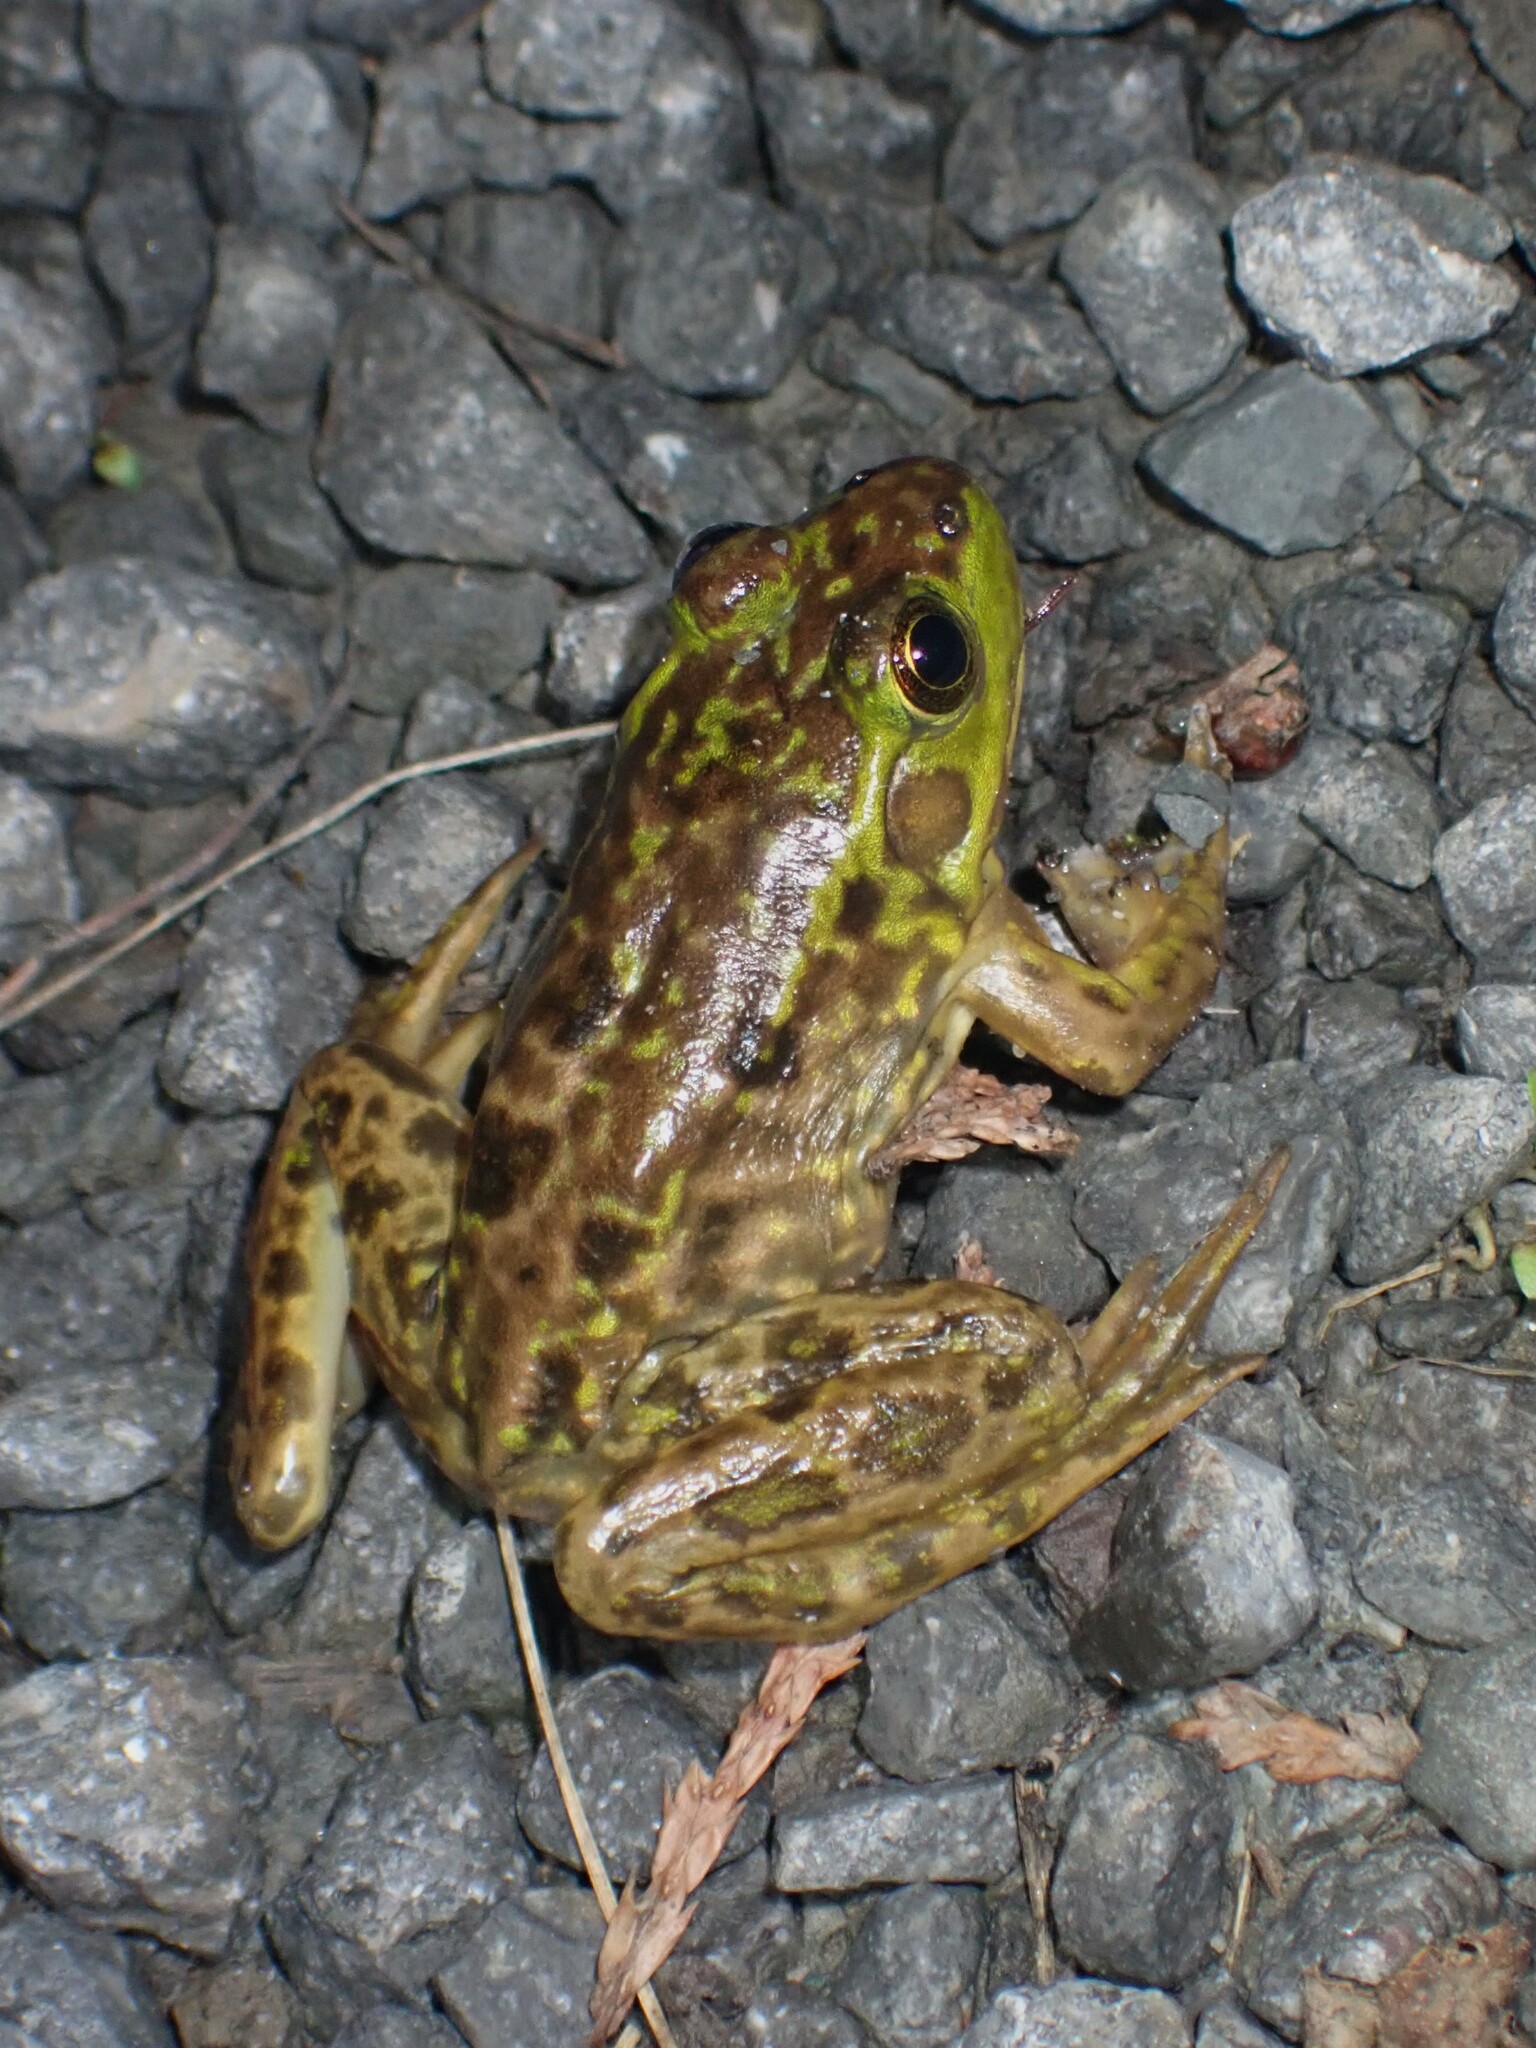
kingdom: Animalia
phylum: Chordata
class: Amphibia
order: Anura
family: Ranidae
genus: Lithobates
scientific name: Lithobates septentrionalis
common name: Mink frog
